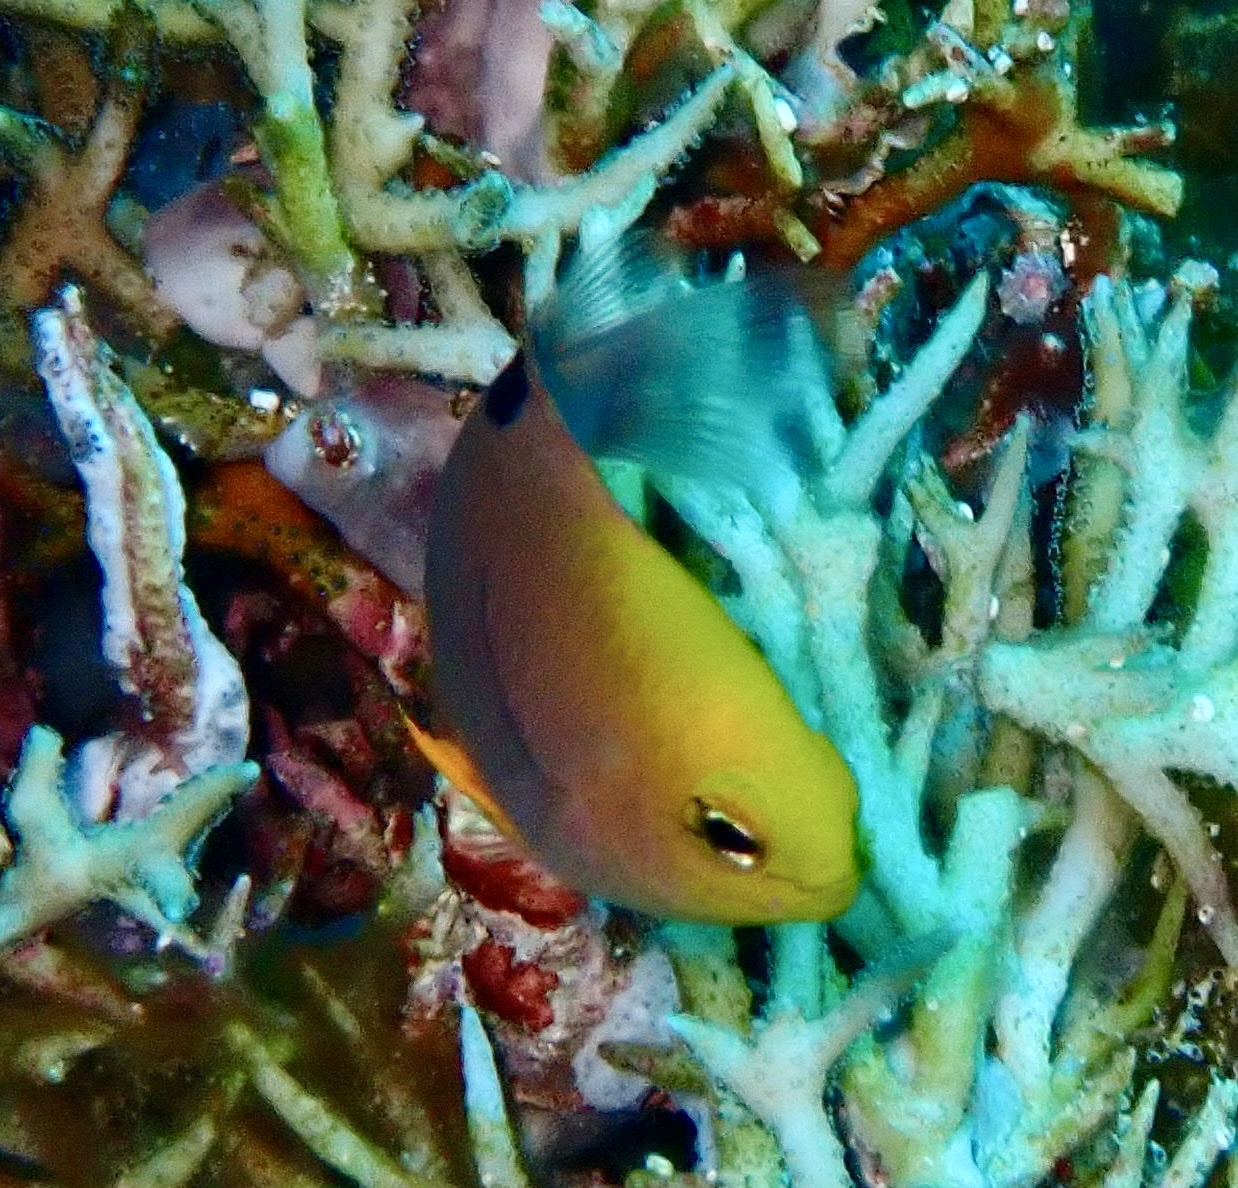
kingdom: Animalia
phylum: Chordata
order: Perciformes
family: Pomacentridae
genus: Chrysiptera
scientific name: Chrysiptera talboti
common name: Talbot's demoiselle
